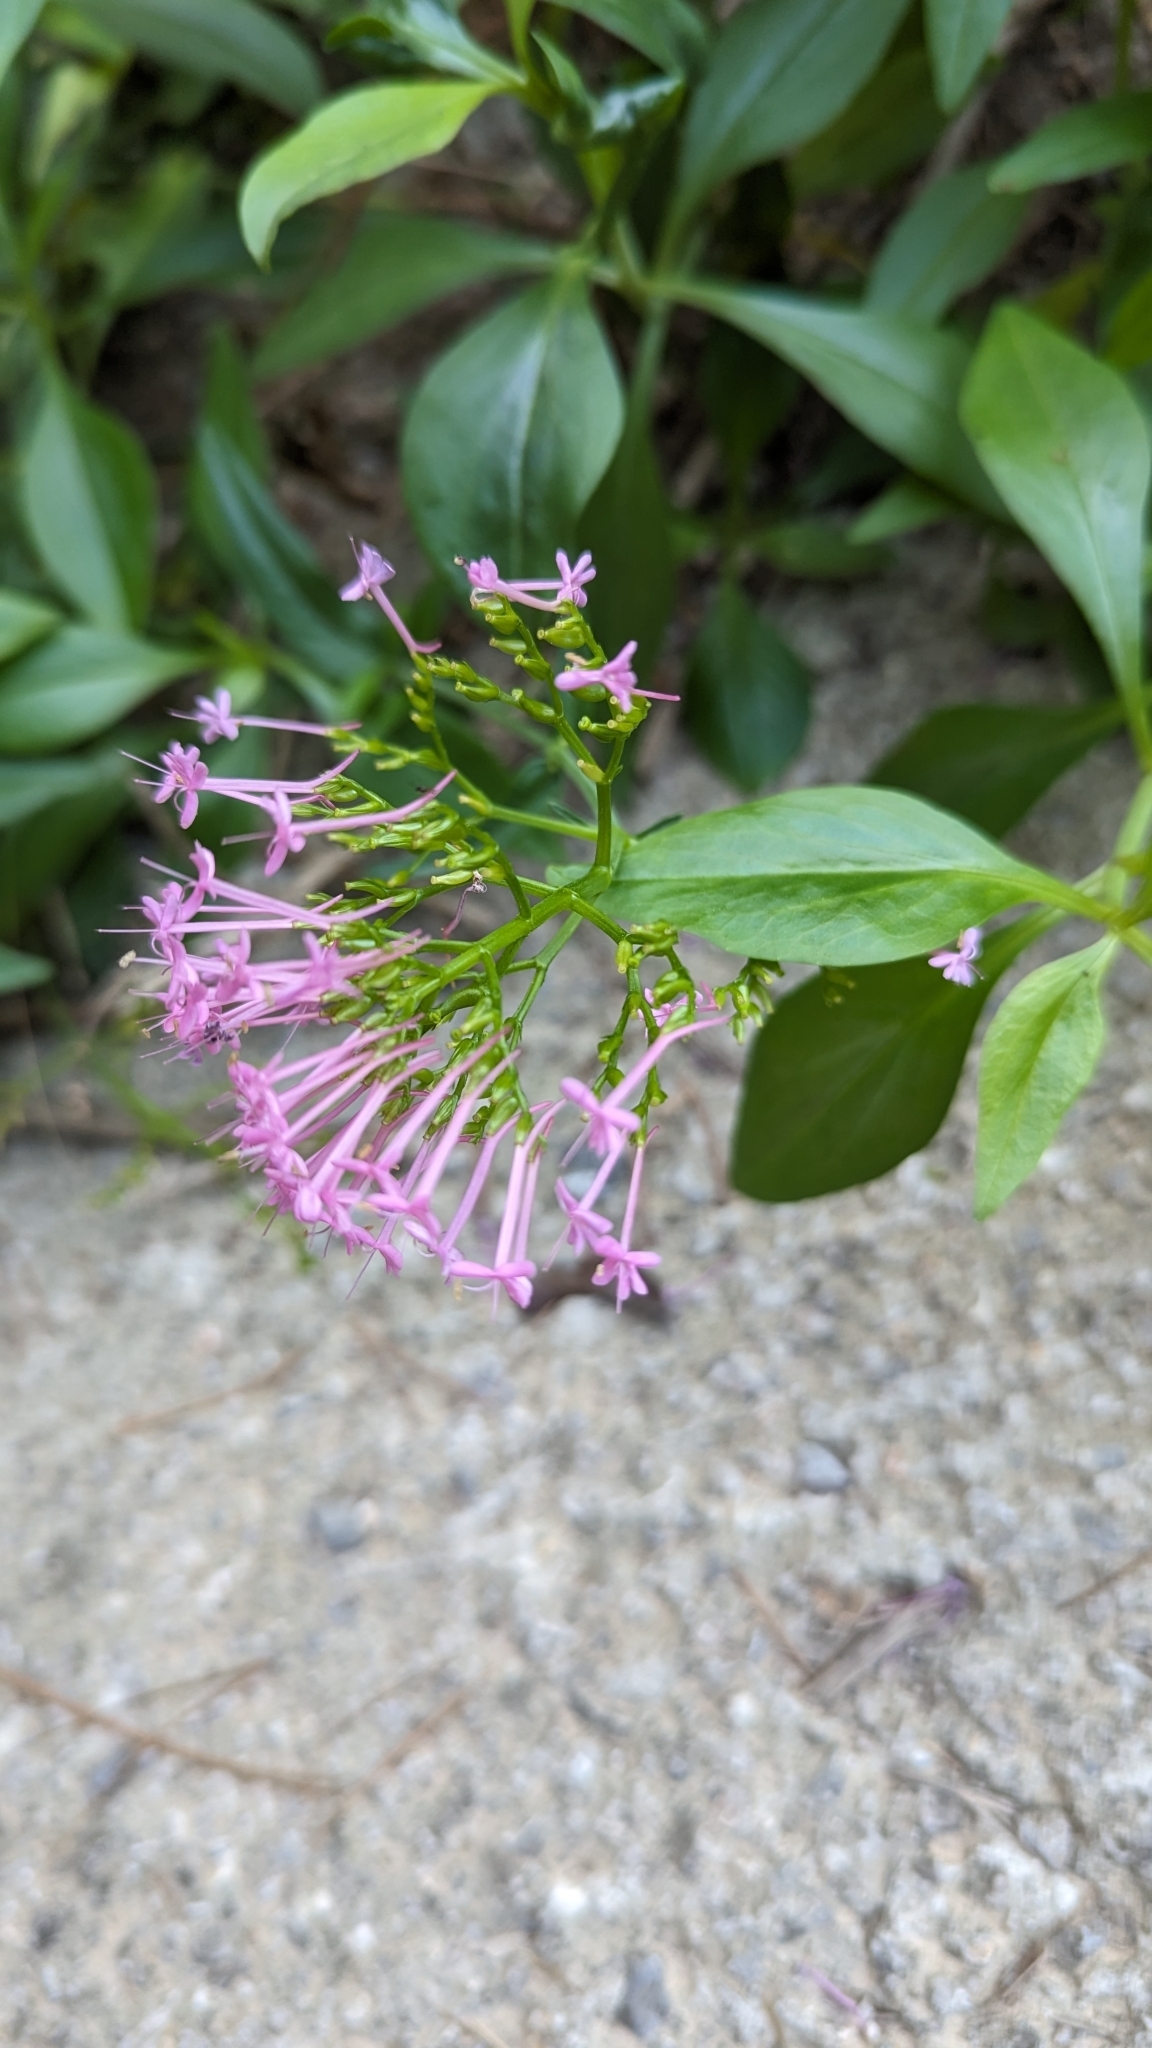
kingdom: Plantae
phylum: Tracheophyta
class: Magnoliopsida
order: Dipsacales
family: Caprifoliaceae
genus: Centranthus
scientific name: Centranthus ruber
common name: Red valerian
